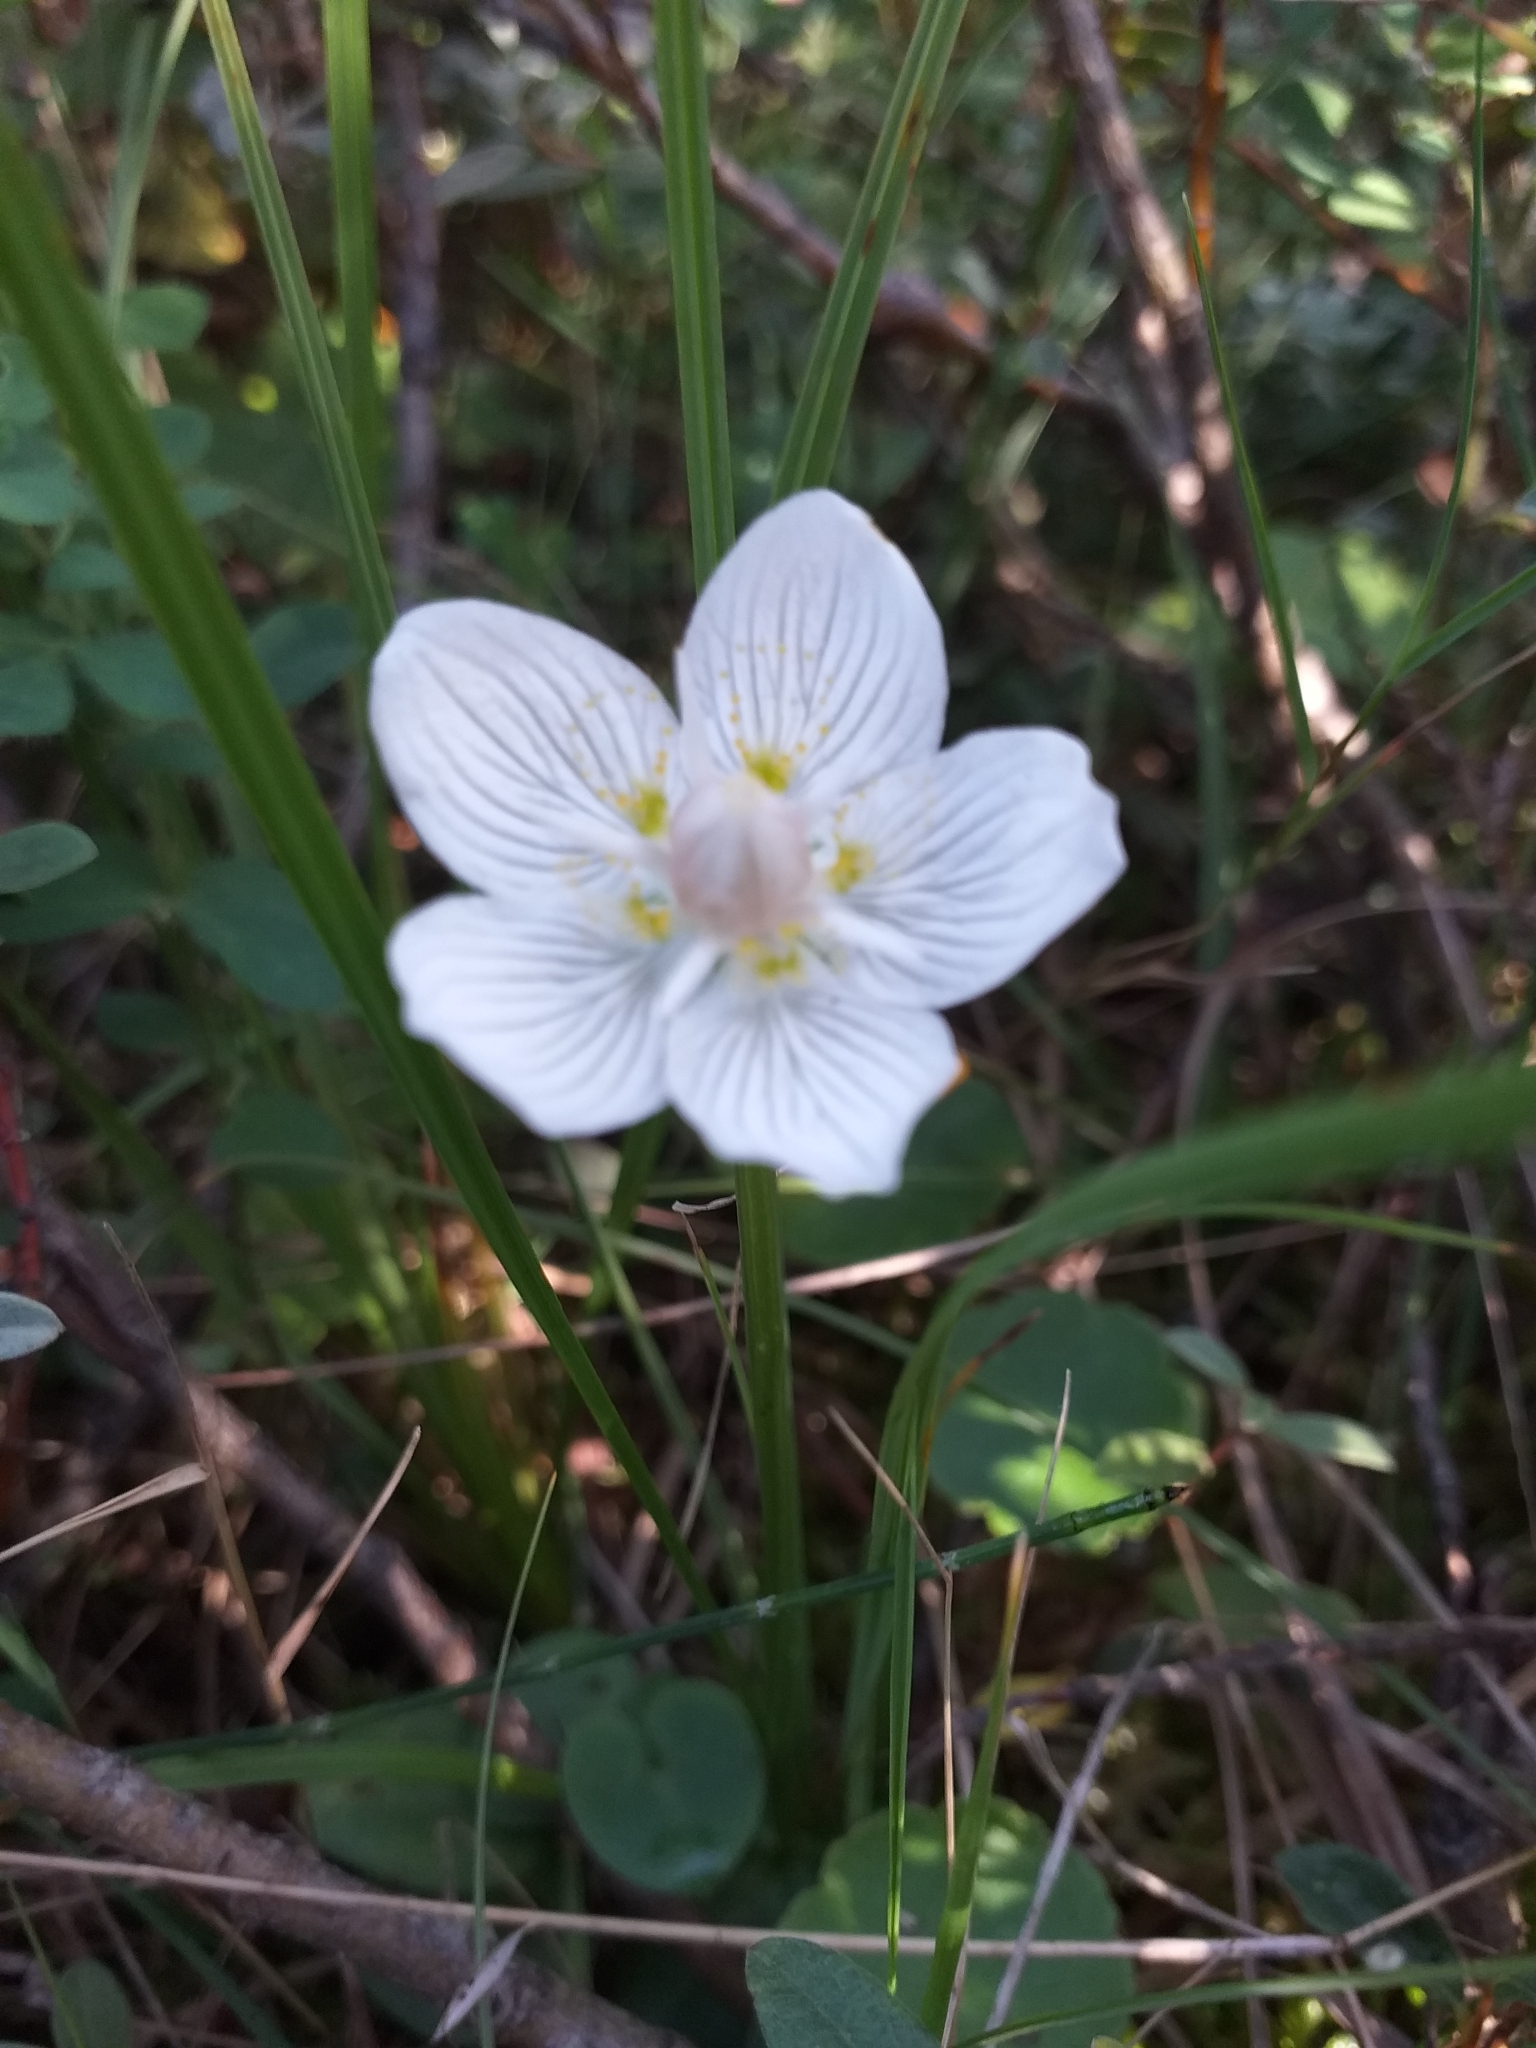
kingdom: Plantae
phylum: Tracheophyta
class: Magnoliopsida
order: Celastrales
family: Parnassiaceae
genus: Parnassia
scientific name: Parnassia palustris
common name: Grass-of-parnassus
